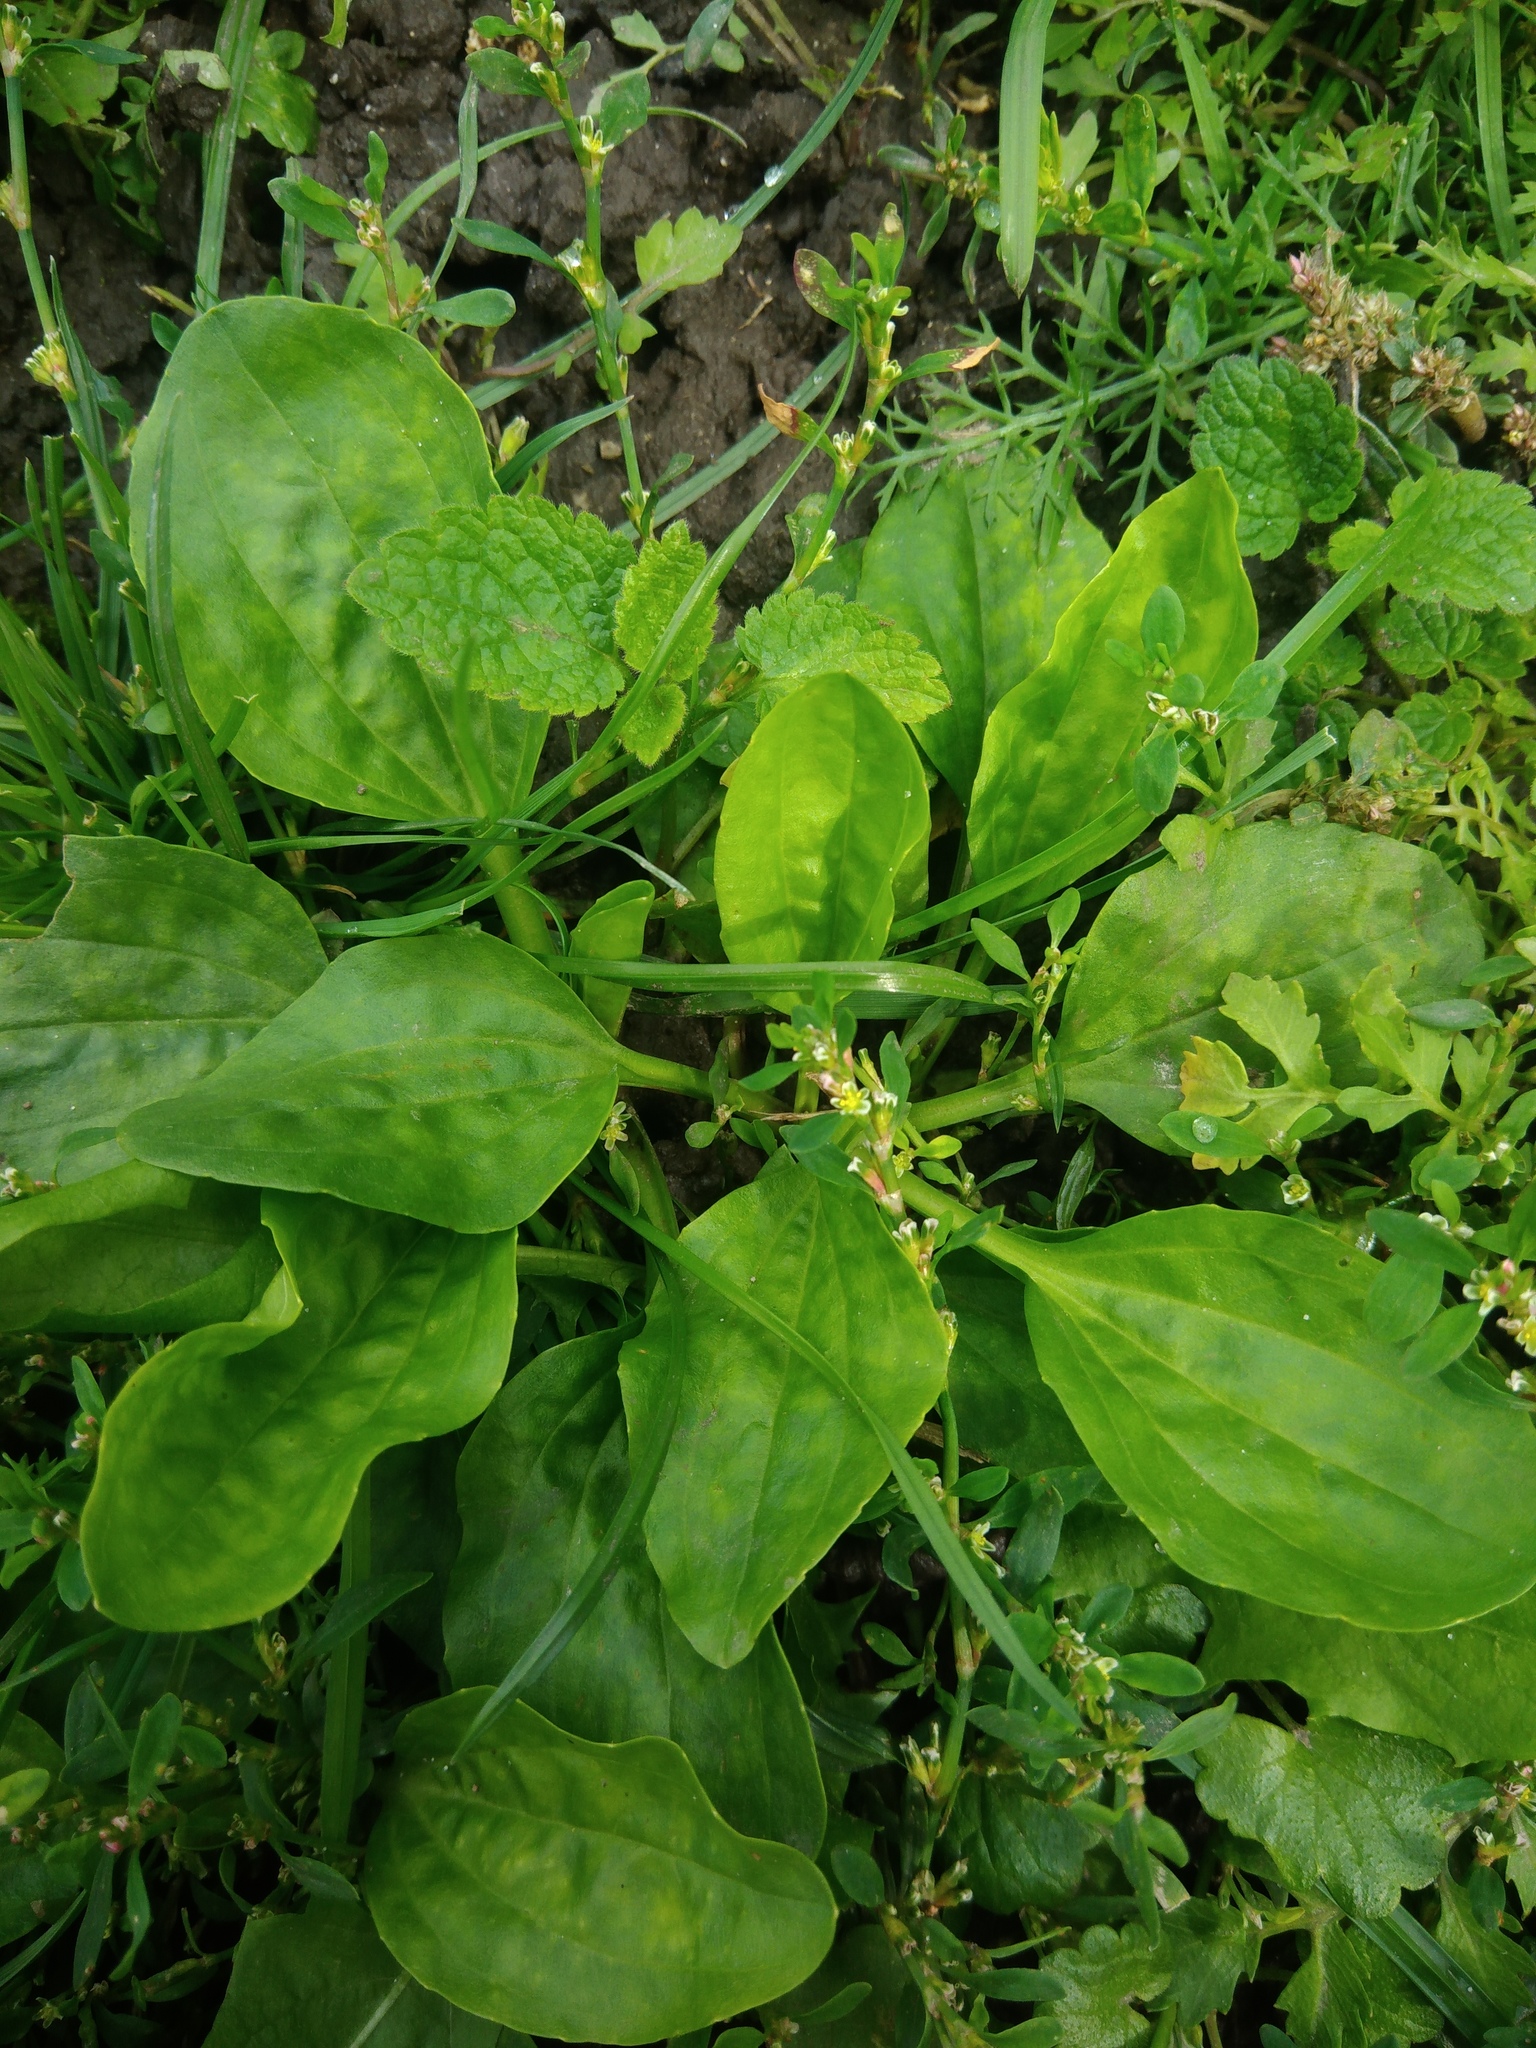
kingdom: Plantae
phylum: Tracheophyta
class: Magnoliopsida
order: Lamiales
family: Plantaginaceae
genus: Plantago
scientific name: Plantago major
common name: Common plantain
